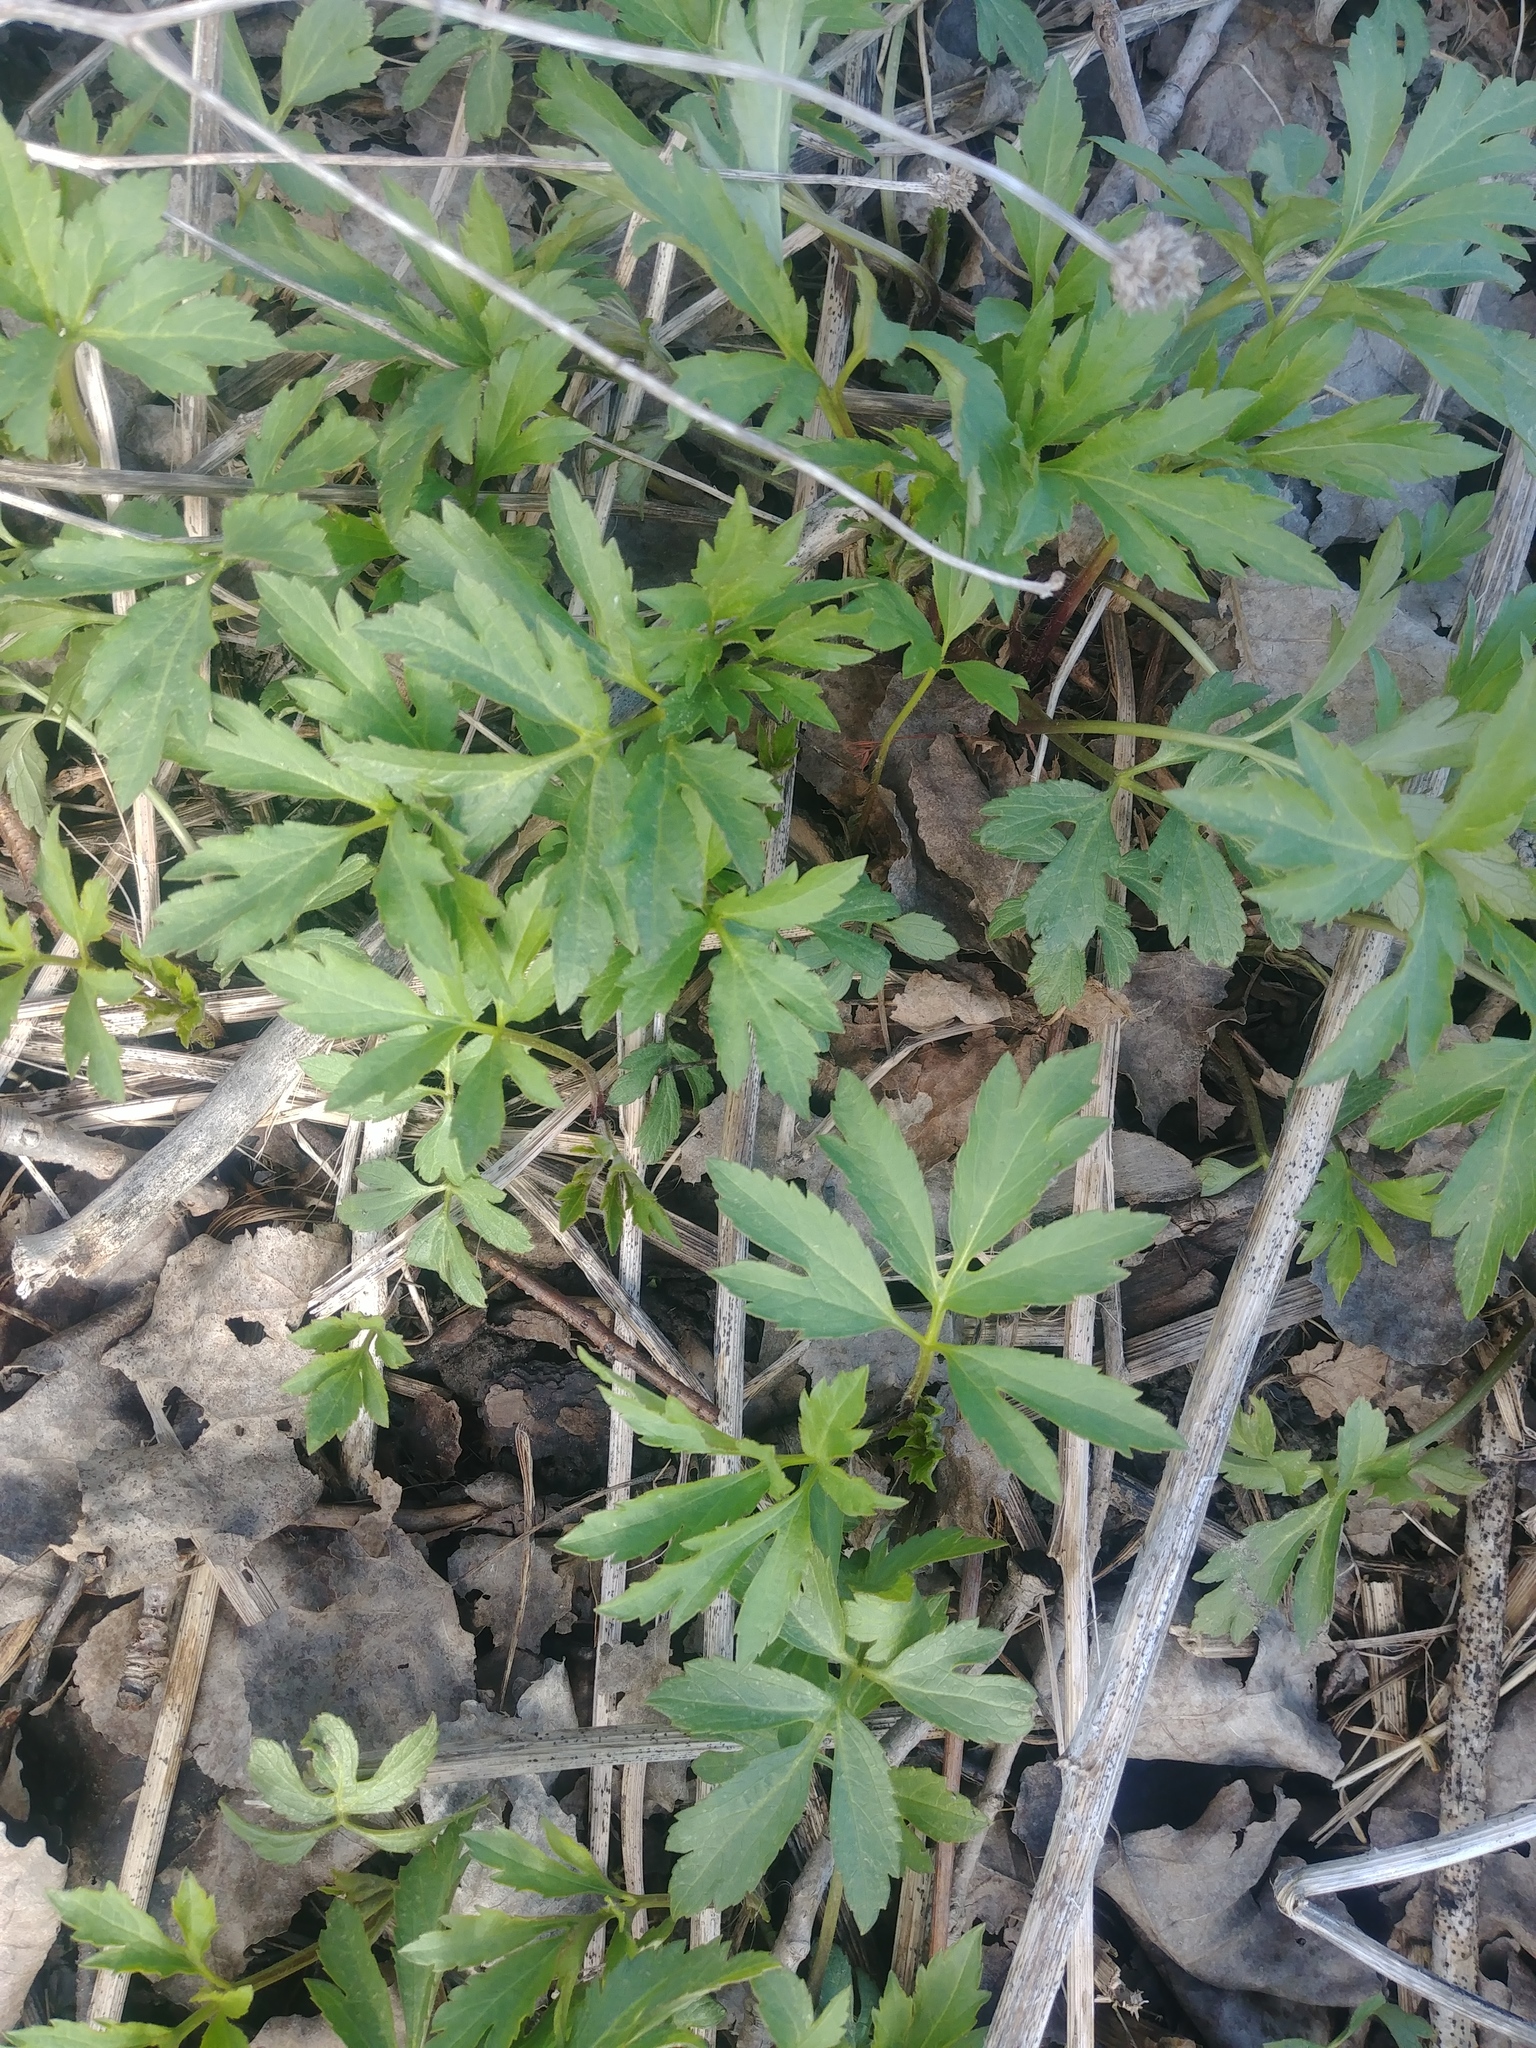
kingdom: Plantae
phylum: Tracheophyta
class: Magnoliopsida
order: Asterales
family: Asteraceae
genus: Rudbeckia
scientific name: Rudbeckia laciniata
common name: Coneflower
